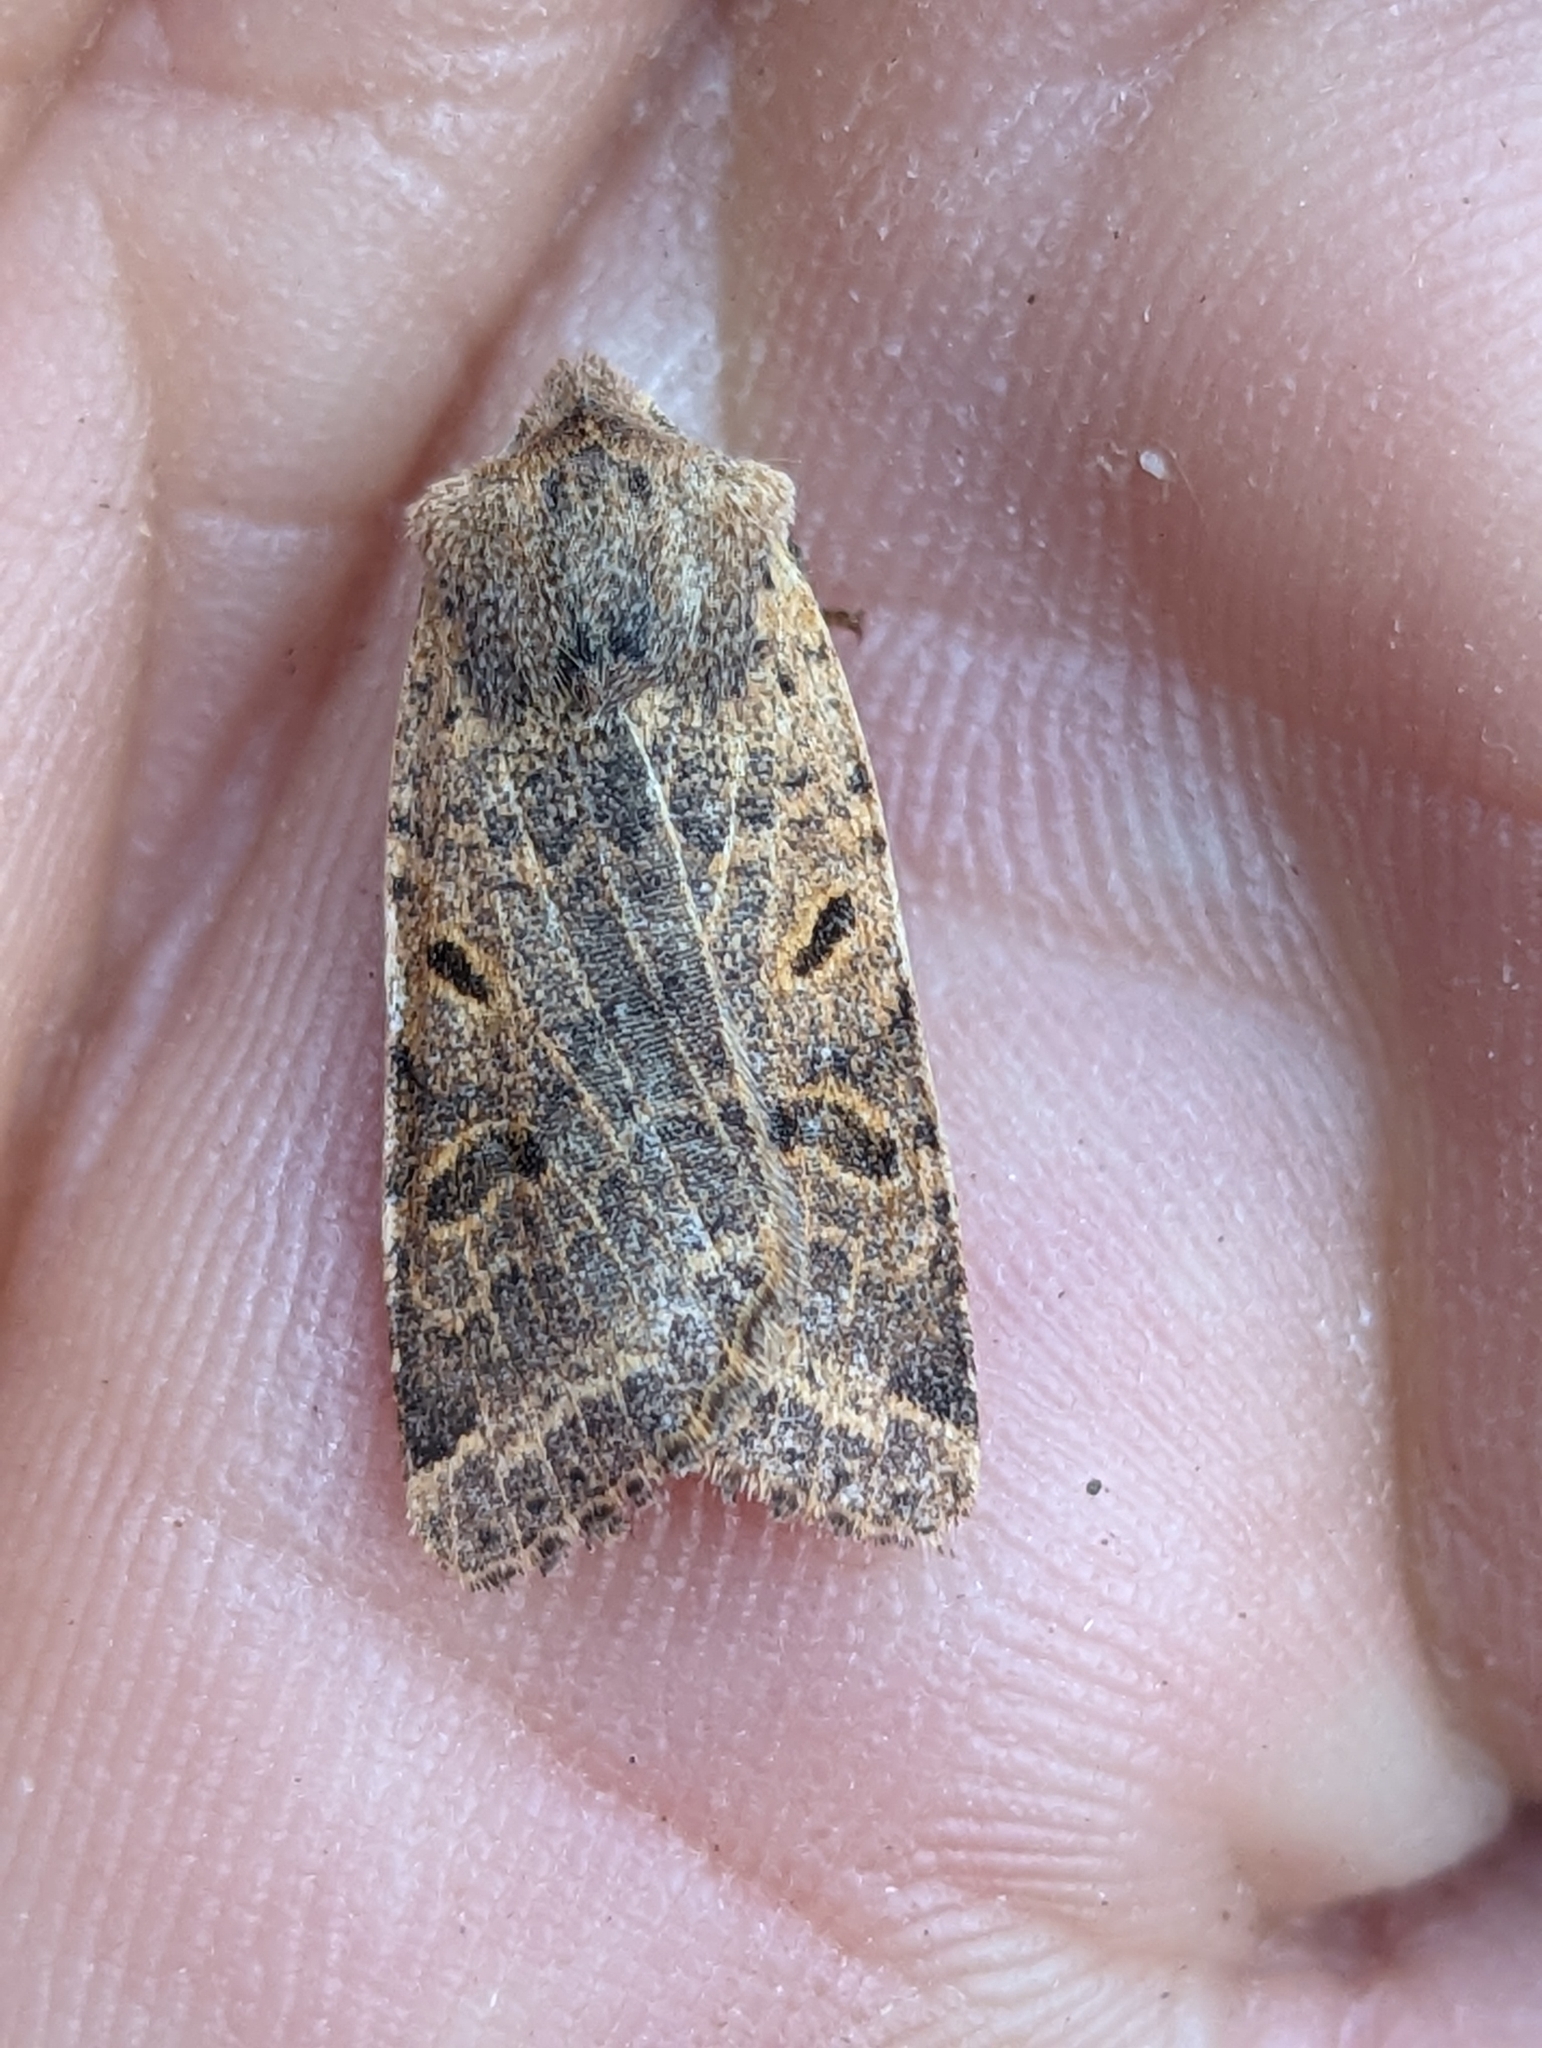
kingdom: Animalia
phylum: Arthropoda
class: Insecta
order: Lepidoptera
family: Noctuidae
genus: Agrochola
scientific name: Agrochola lychnidis
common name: Beaded chestnut
